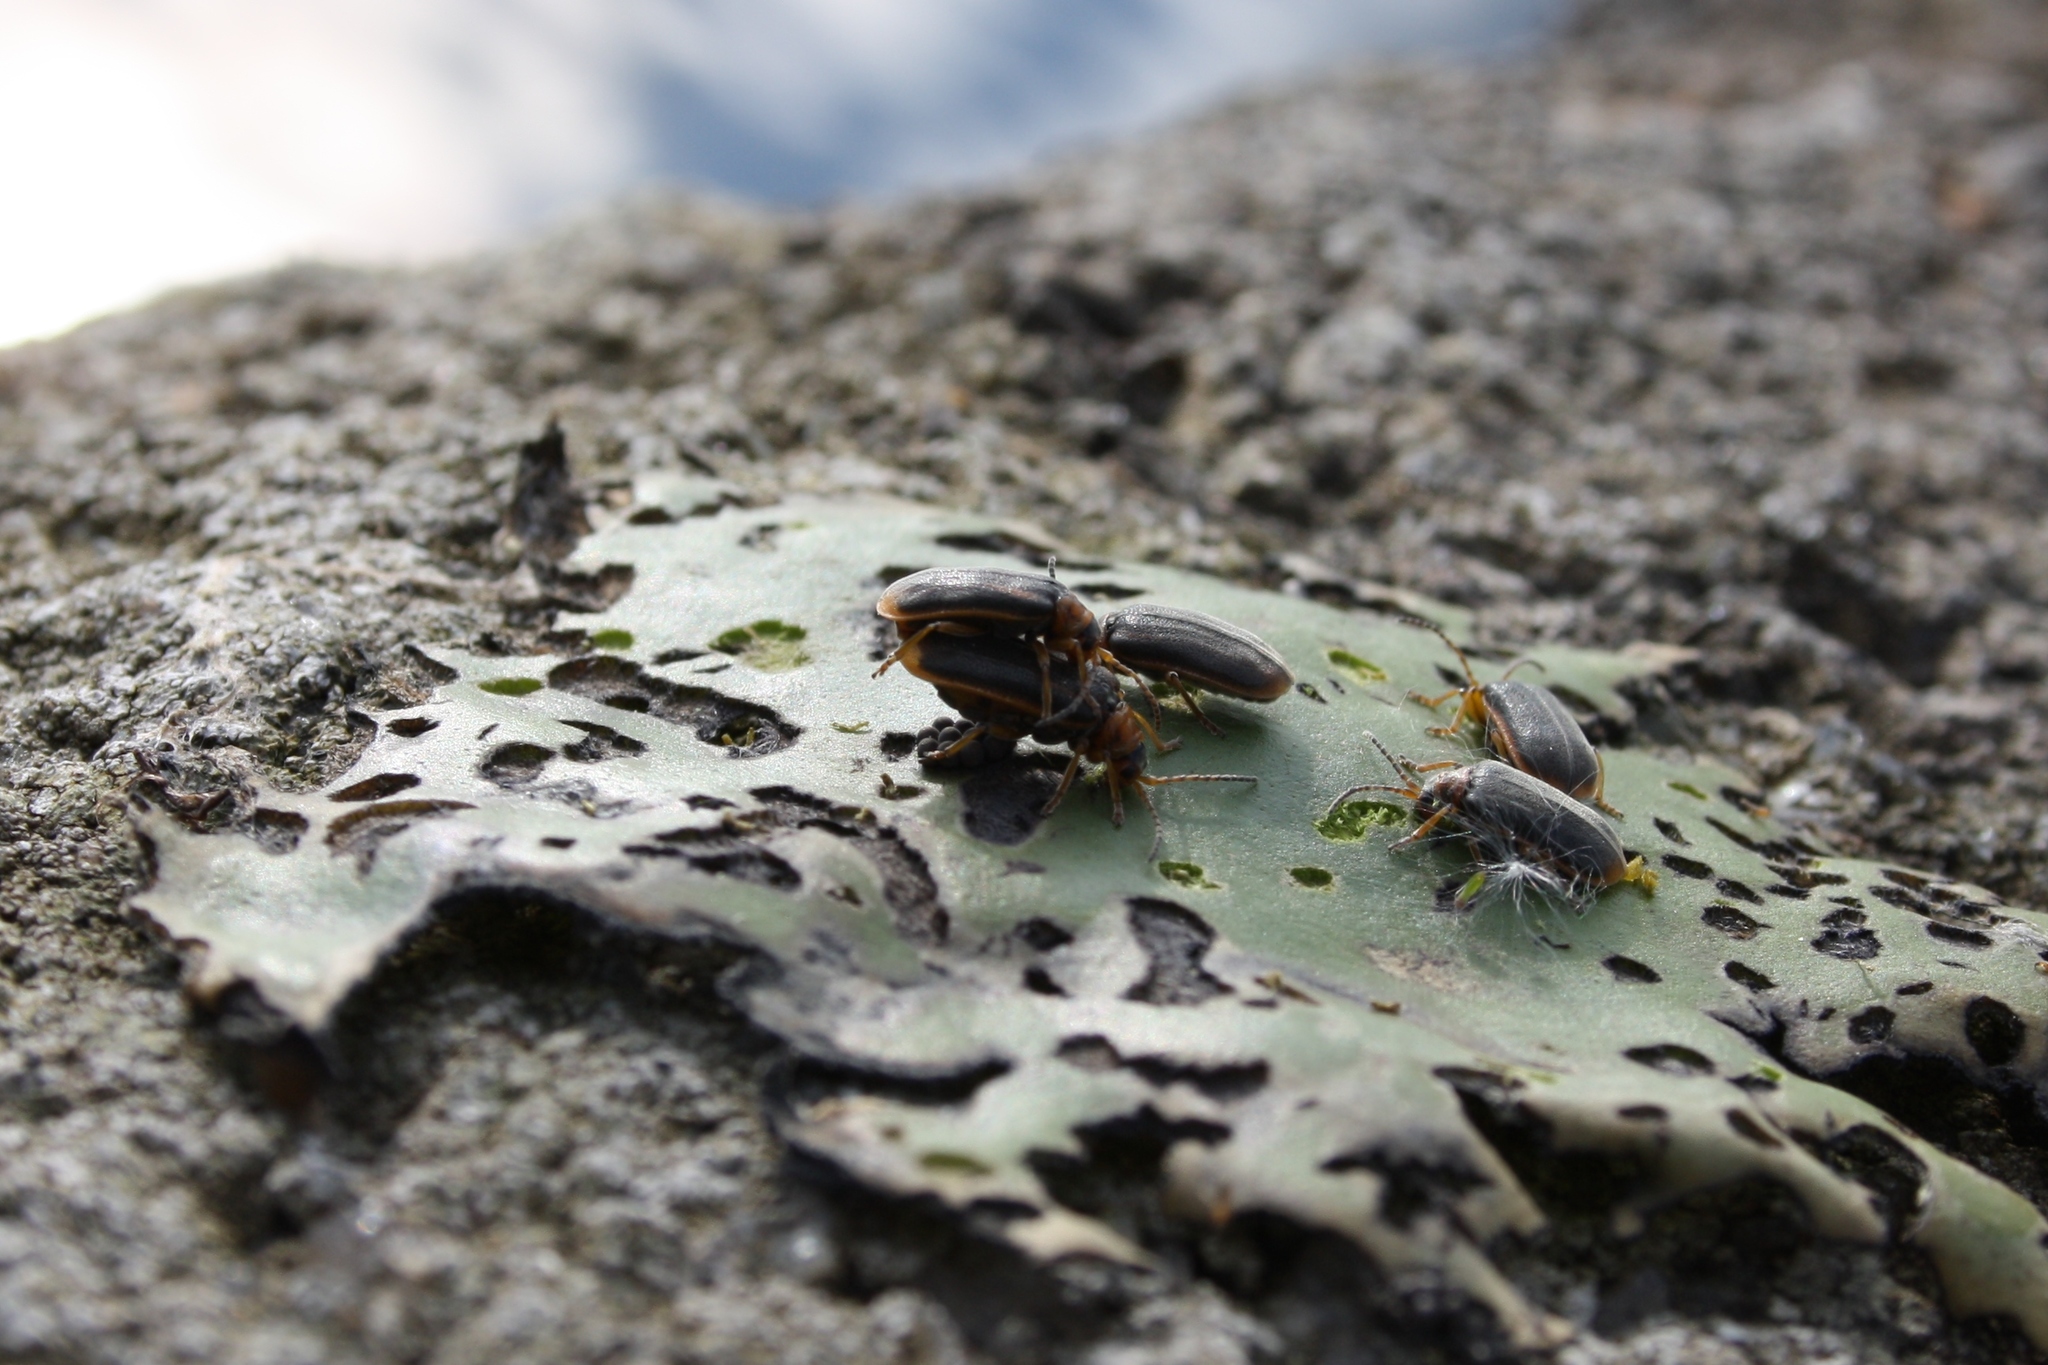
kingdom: Animalia
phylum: Arthropoda
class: Insecta
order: Coleoptera
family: Chrysomelidae
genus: Galerucella
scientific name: Galerucella nymphaeae
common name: Leaf beetle
